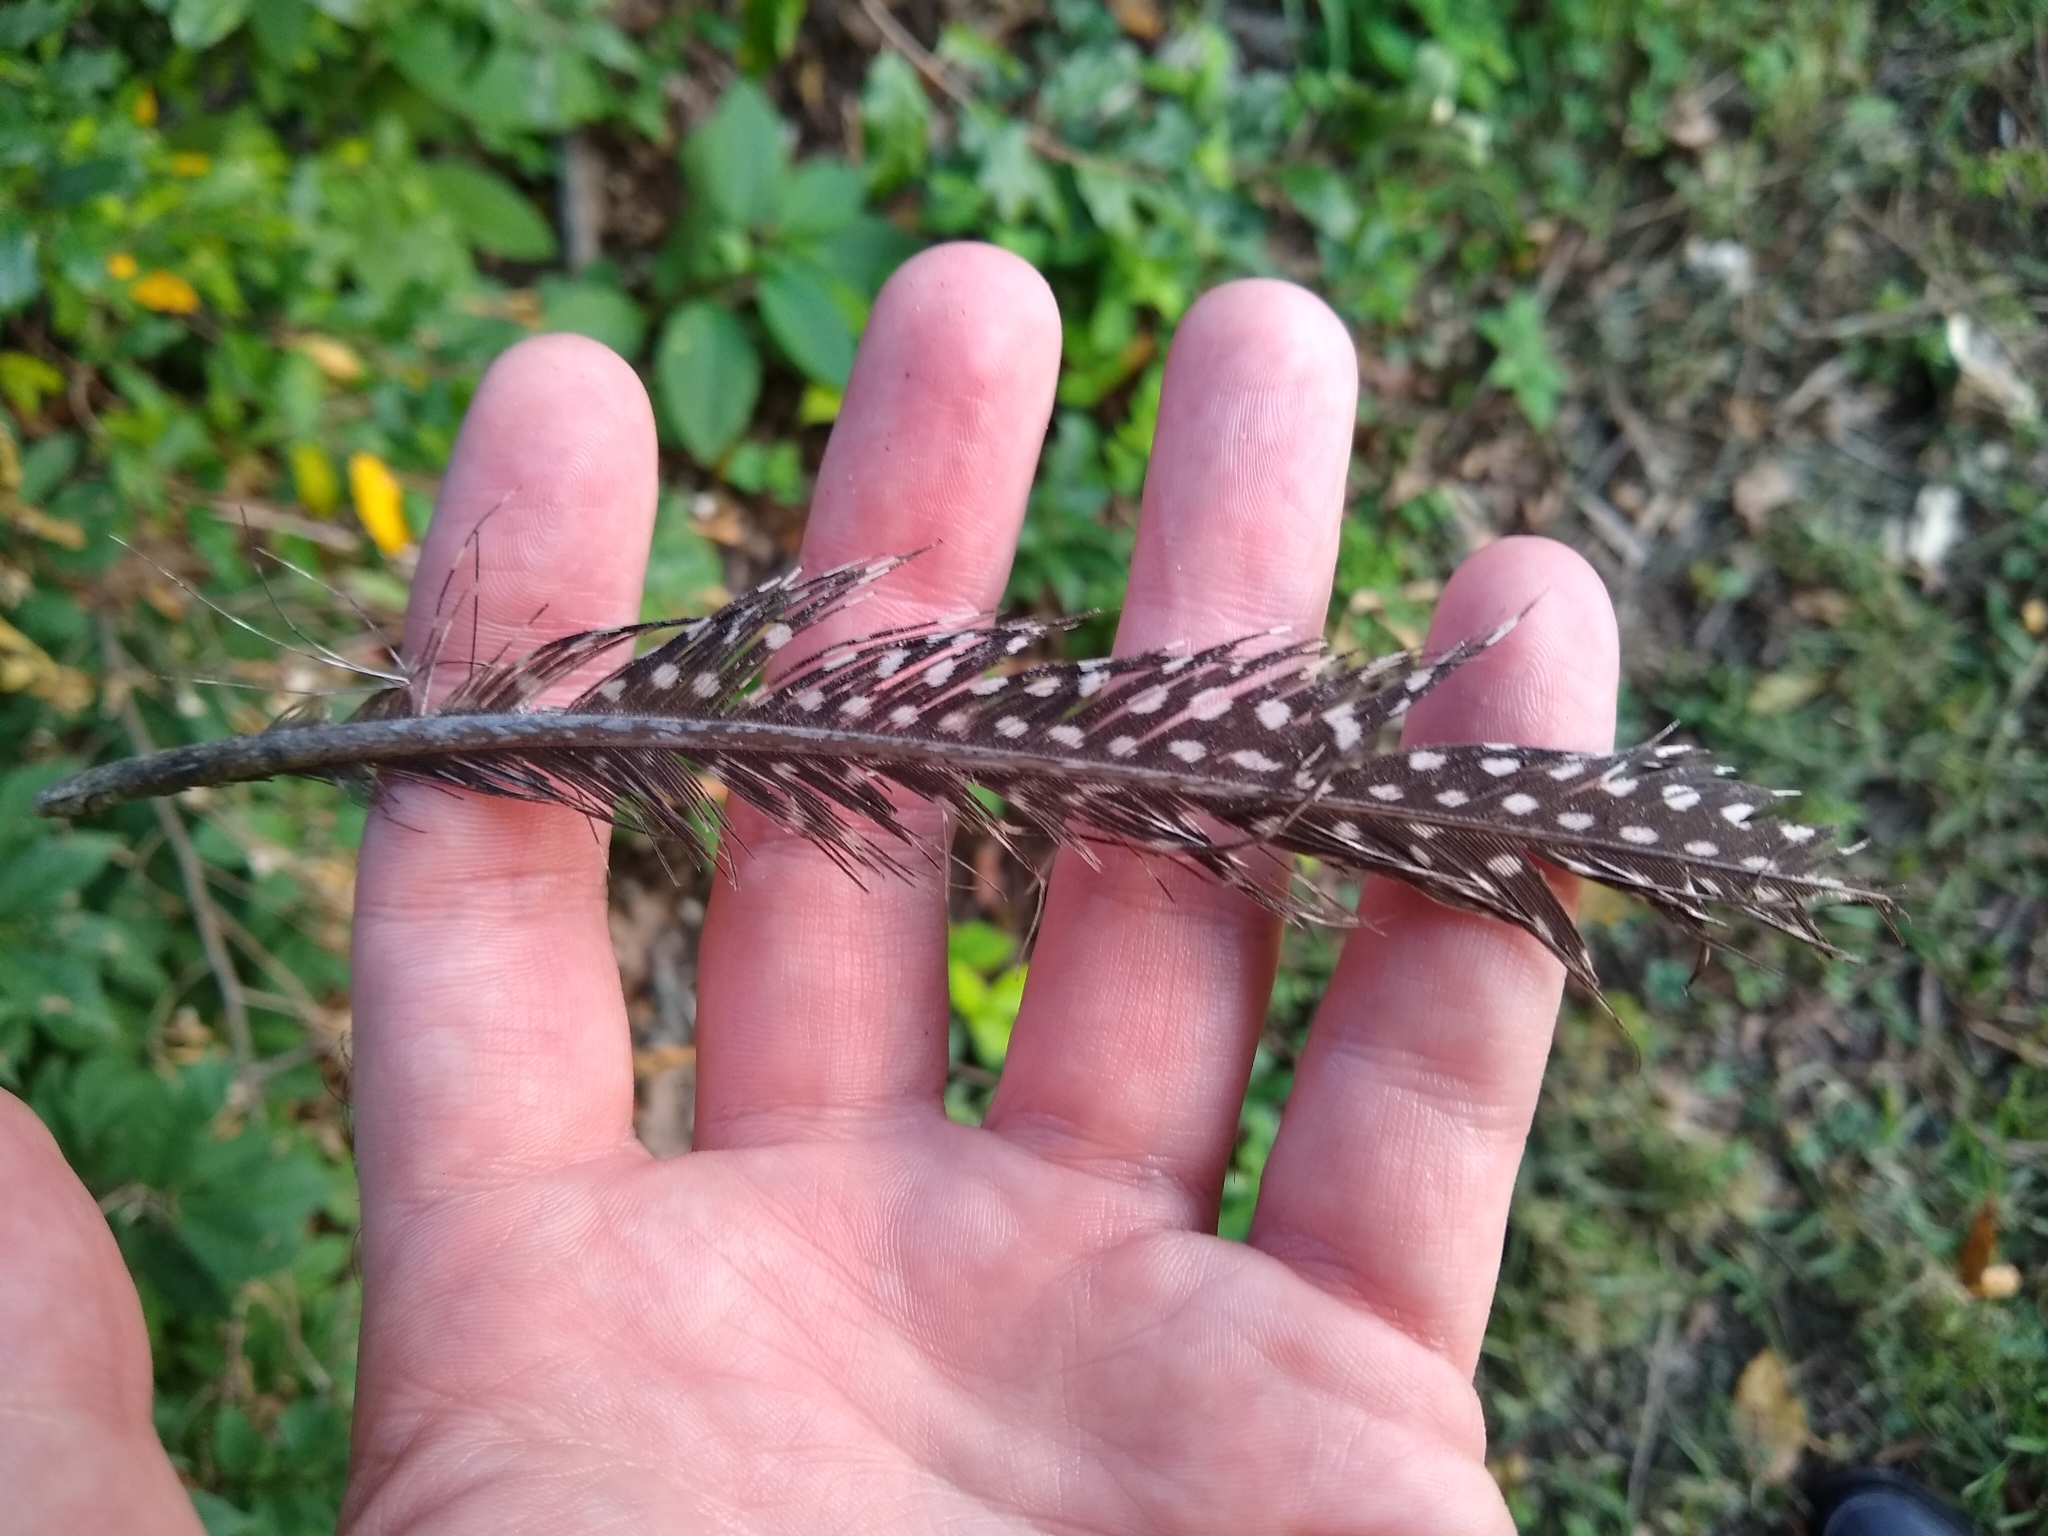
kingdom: Animalia
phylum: Chordata
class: Aves
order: Galliformes
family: Numididae
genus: Numida
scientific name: Numida meleagris
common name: Helmeted guineafowl
